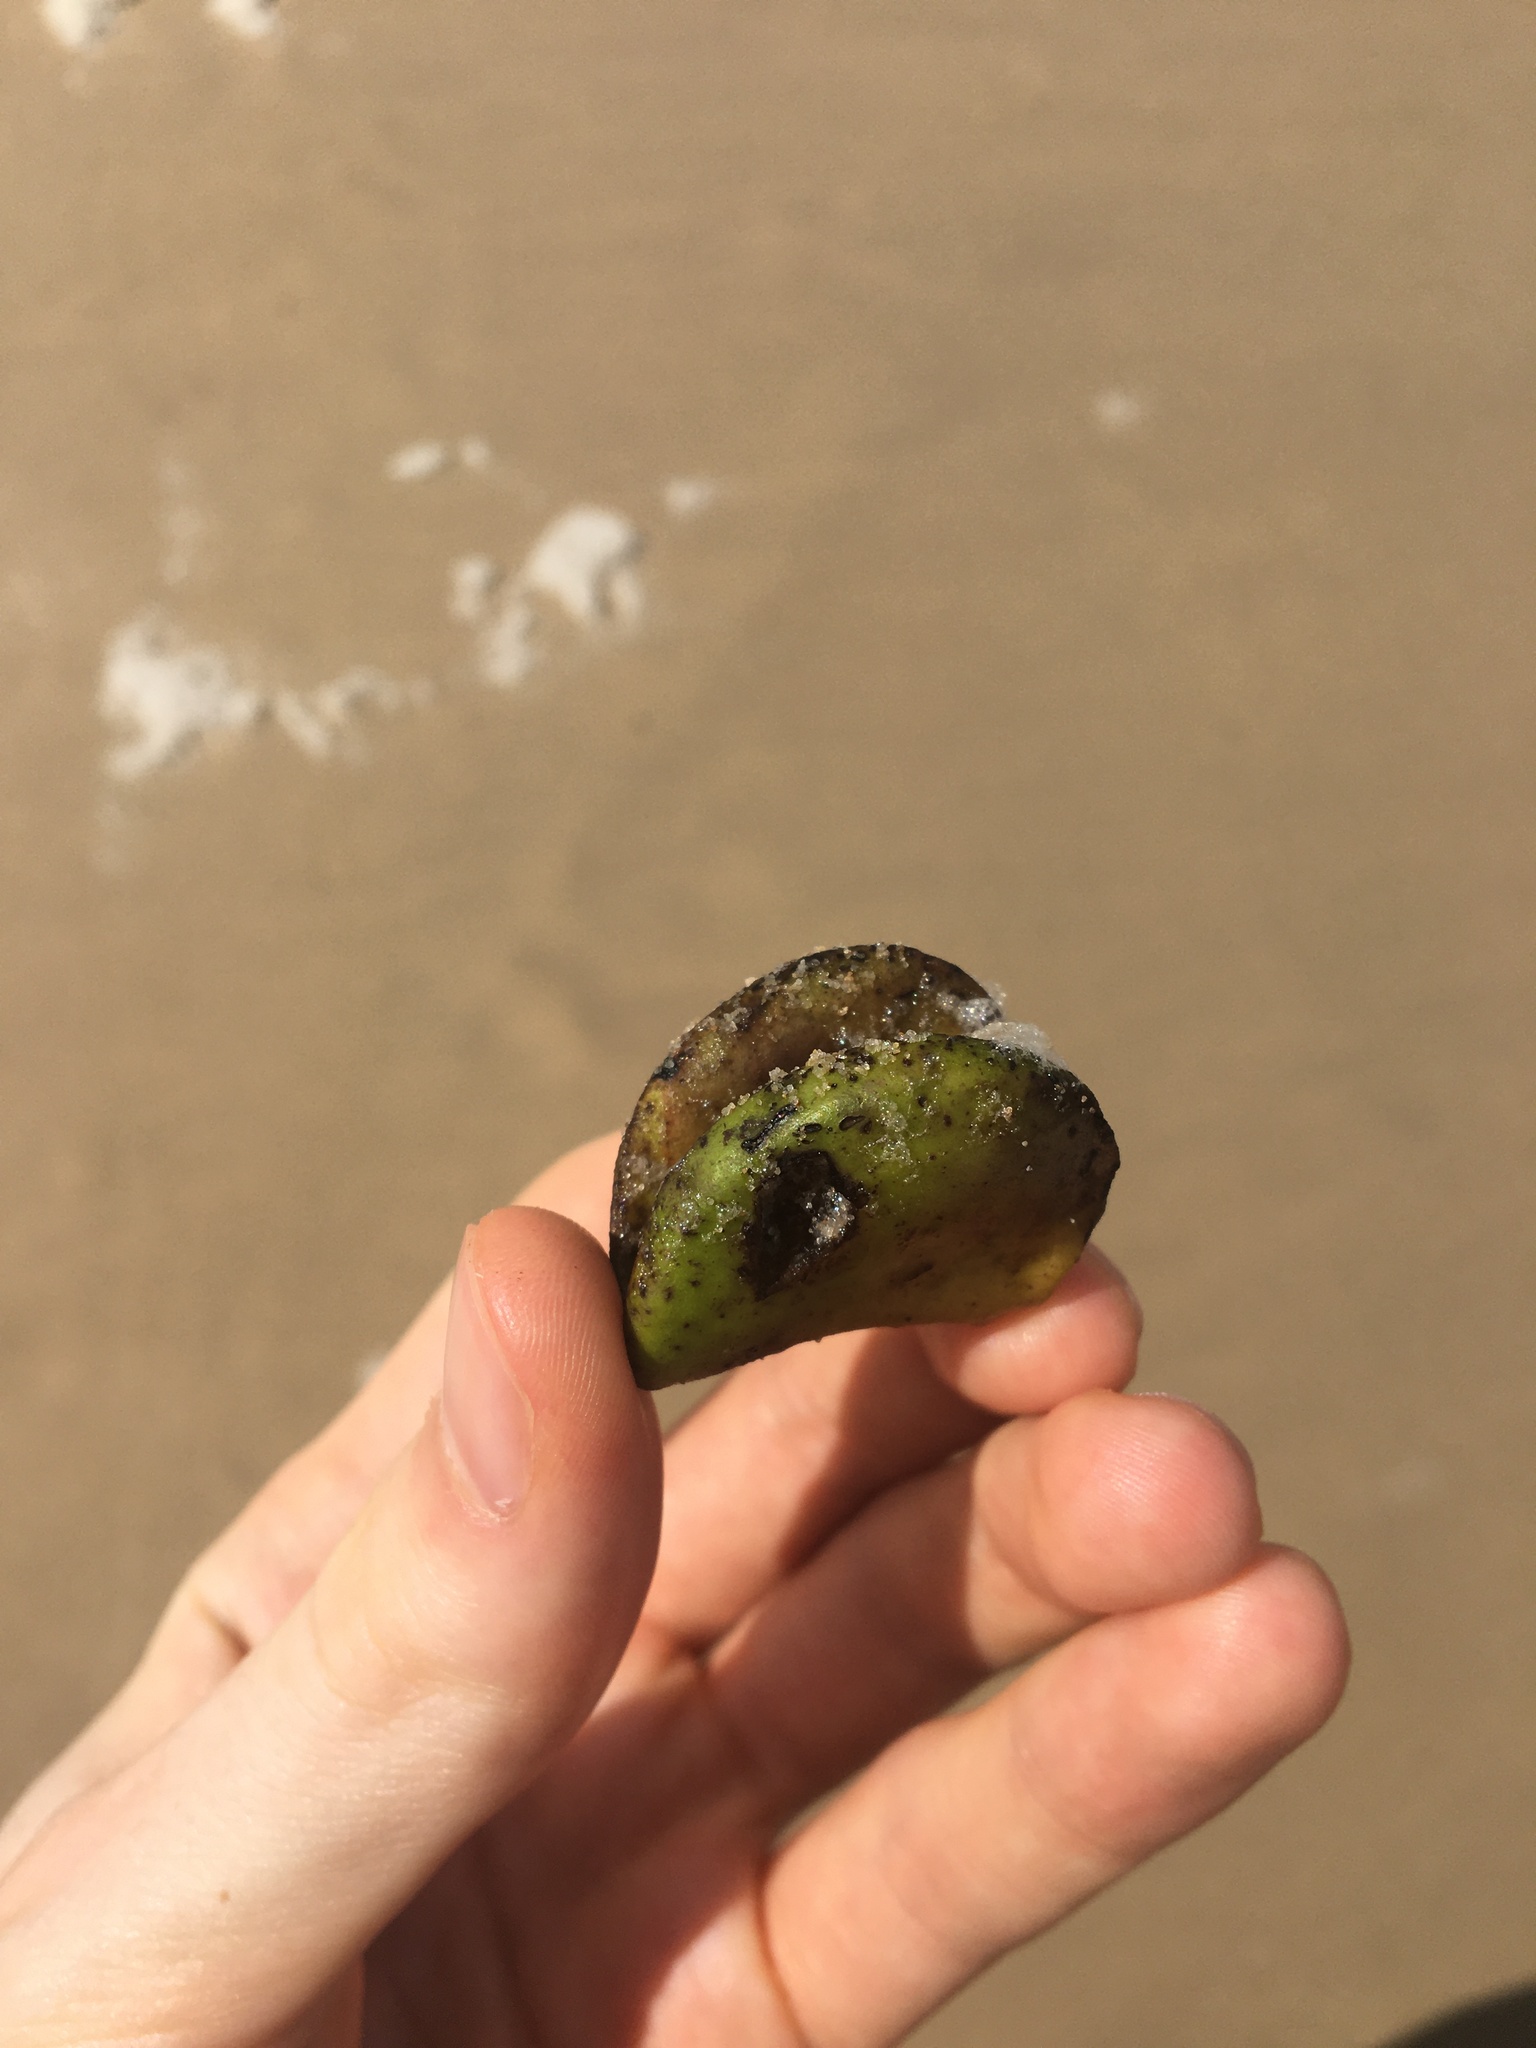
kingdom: Plantae
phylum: Tracheophyta
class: Magnoliopsida
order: Lamiales
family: Acanthaceae
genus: Avicennia
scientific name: Avicennia marina
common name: Gray mangrove
